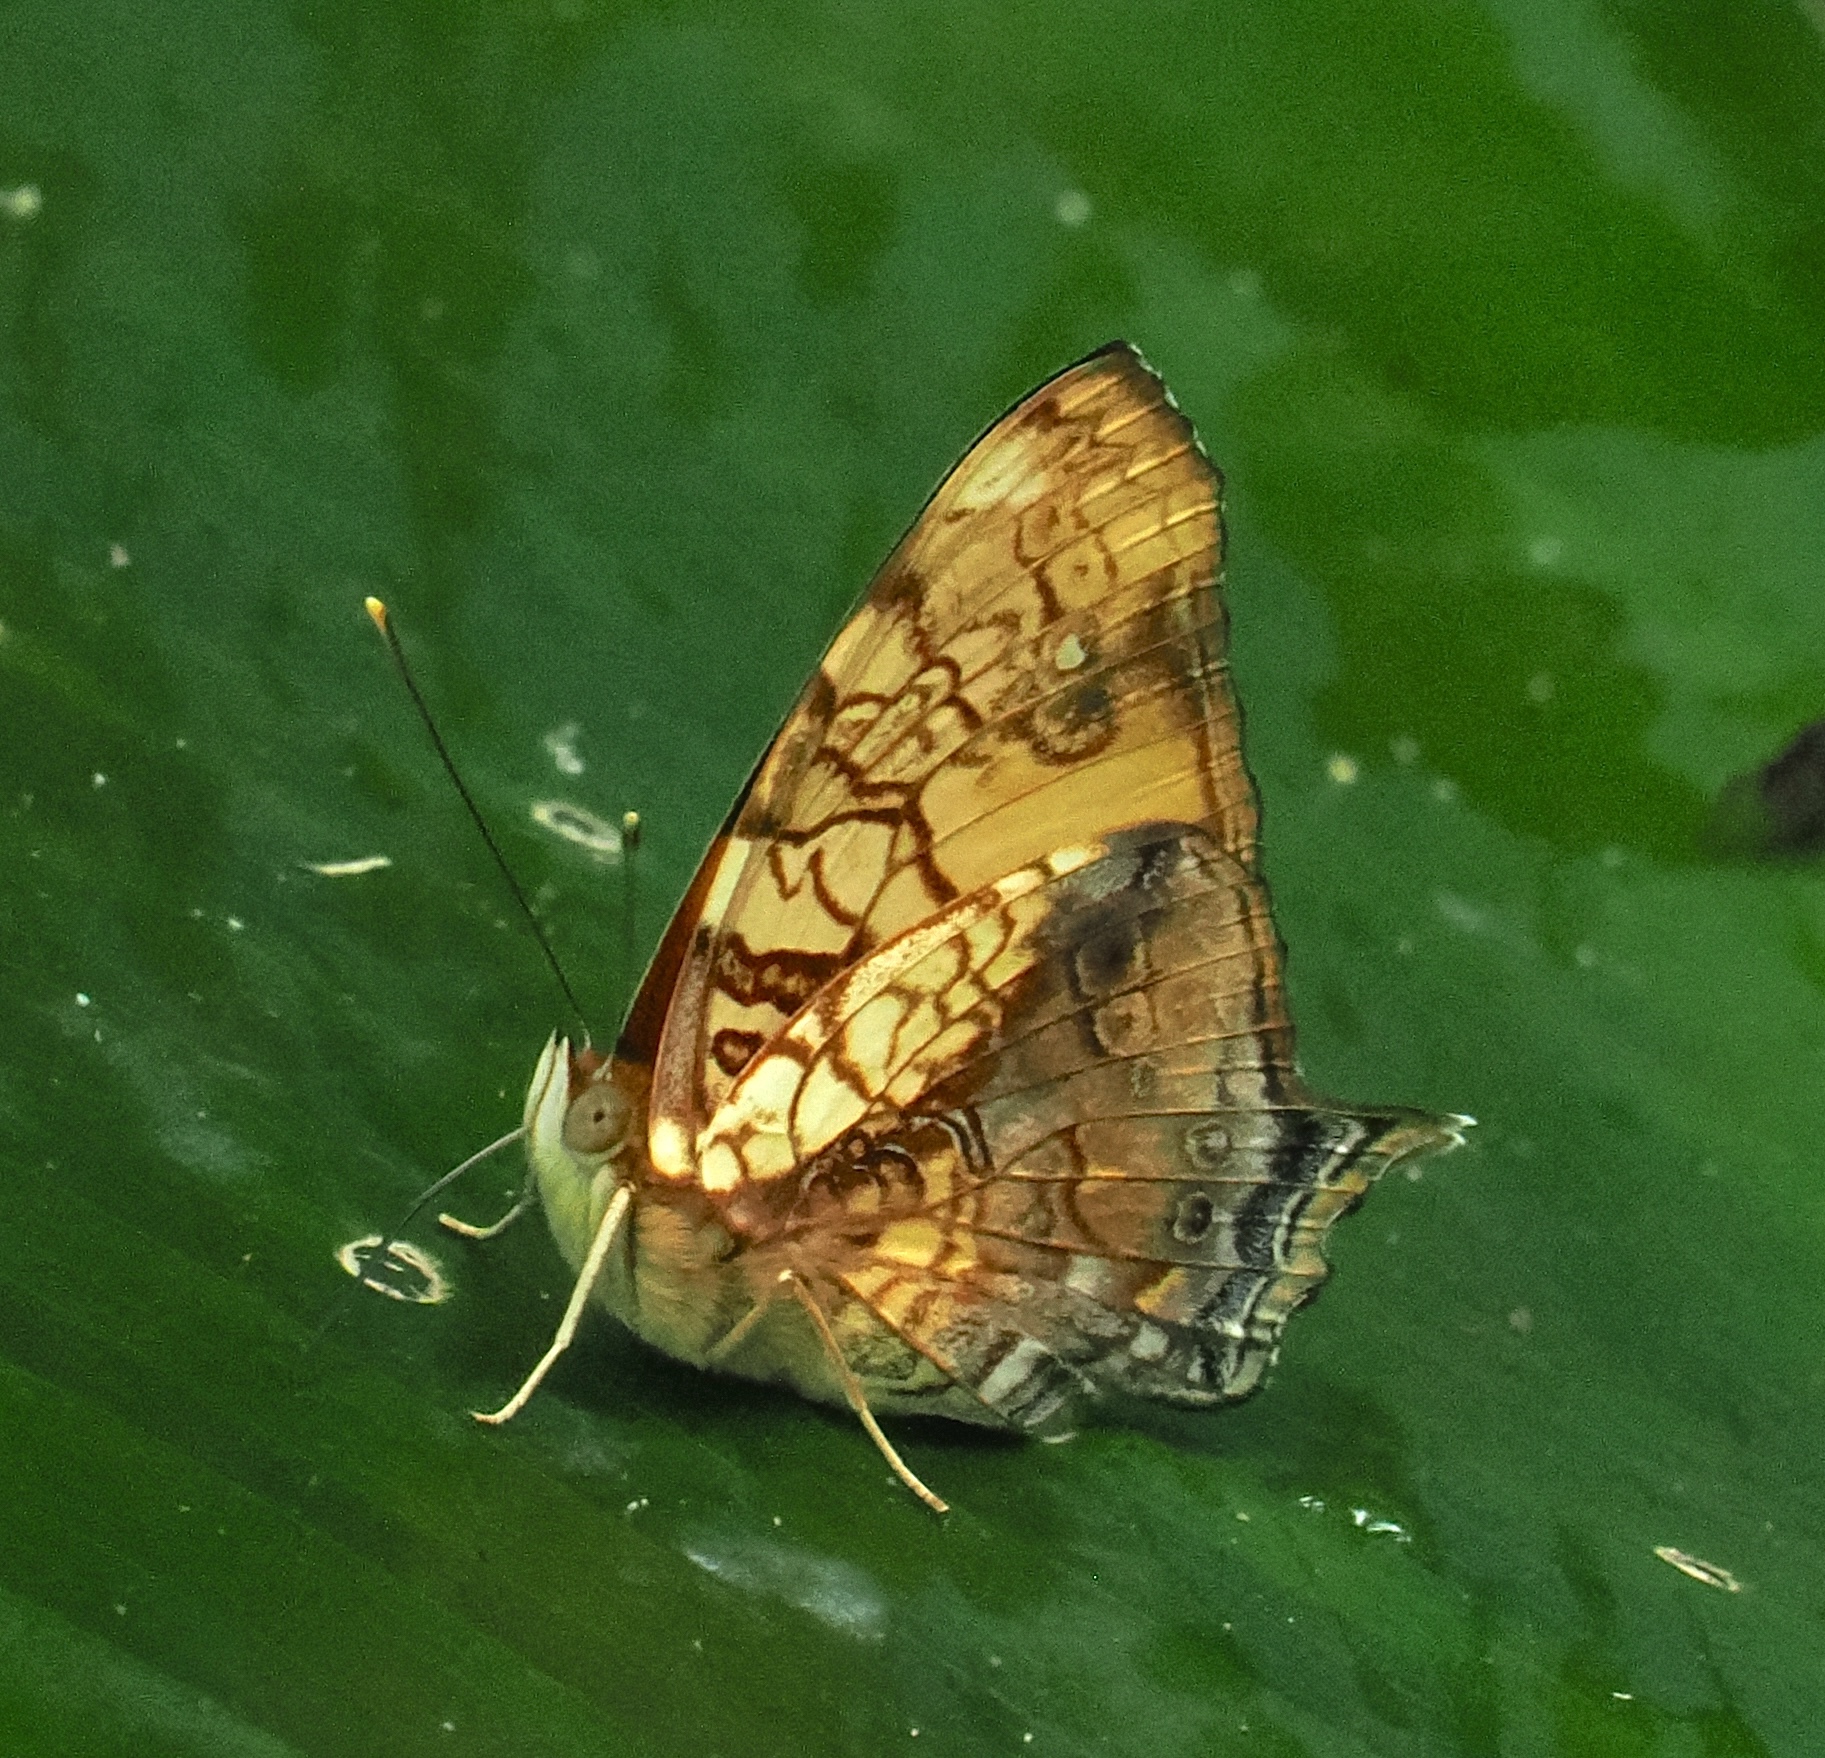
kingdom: Animalia
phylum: Arthropoda
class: Insecta
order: Lepidoptera
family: Nymphalidae
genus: Hypanartia
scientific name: Hypanartia lethe
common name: Orange mapwing
